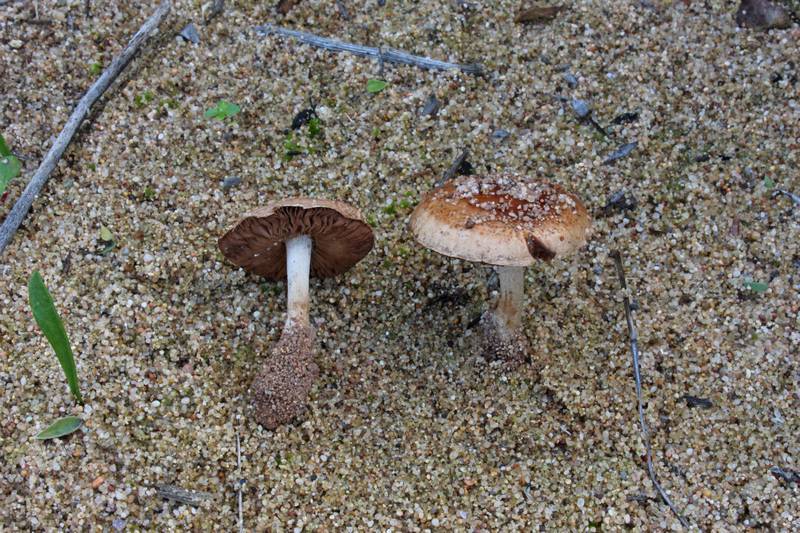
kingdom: Fungi
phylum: Basidiomycota
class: Agaricomycetes
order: Agaricales
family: Hymenogastraceae
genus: Hebeloma
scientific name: Hebeloma cylindrosporum
